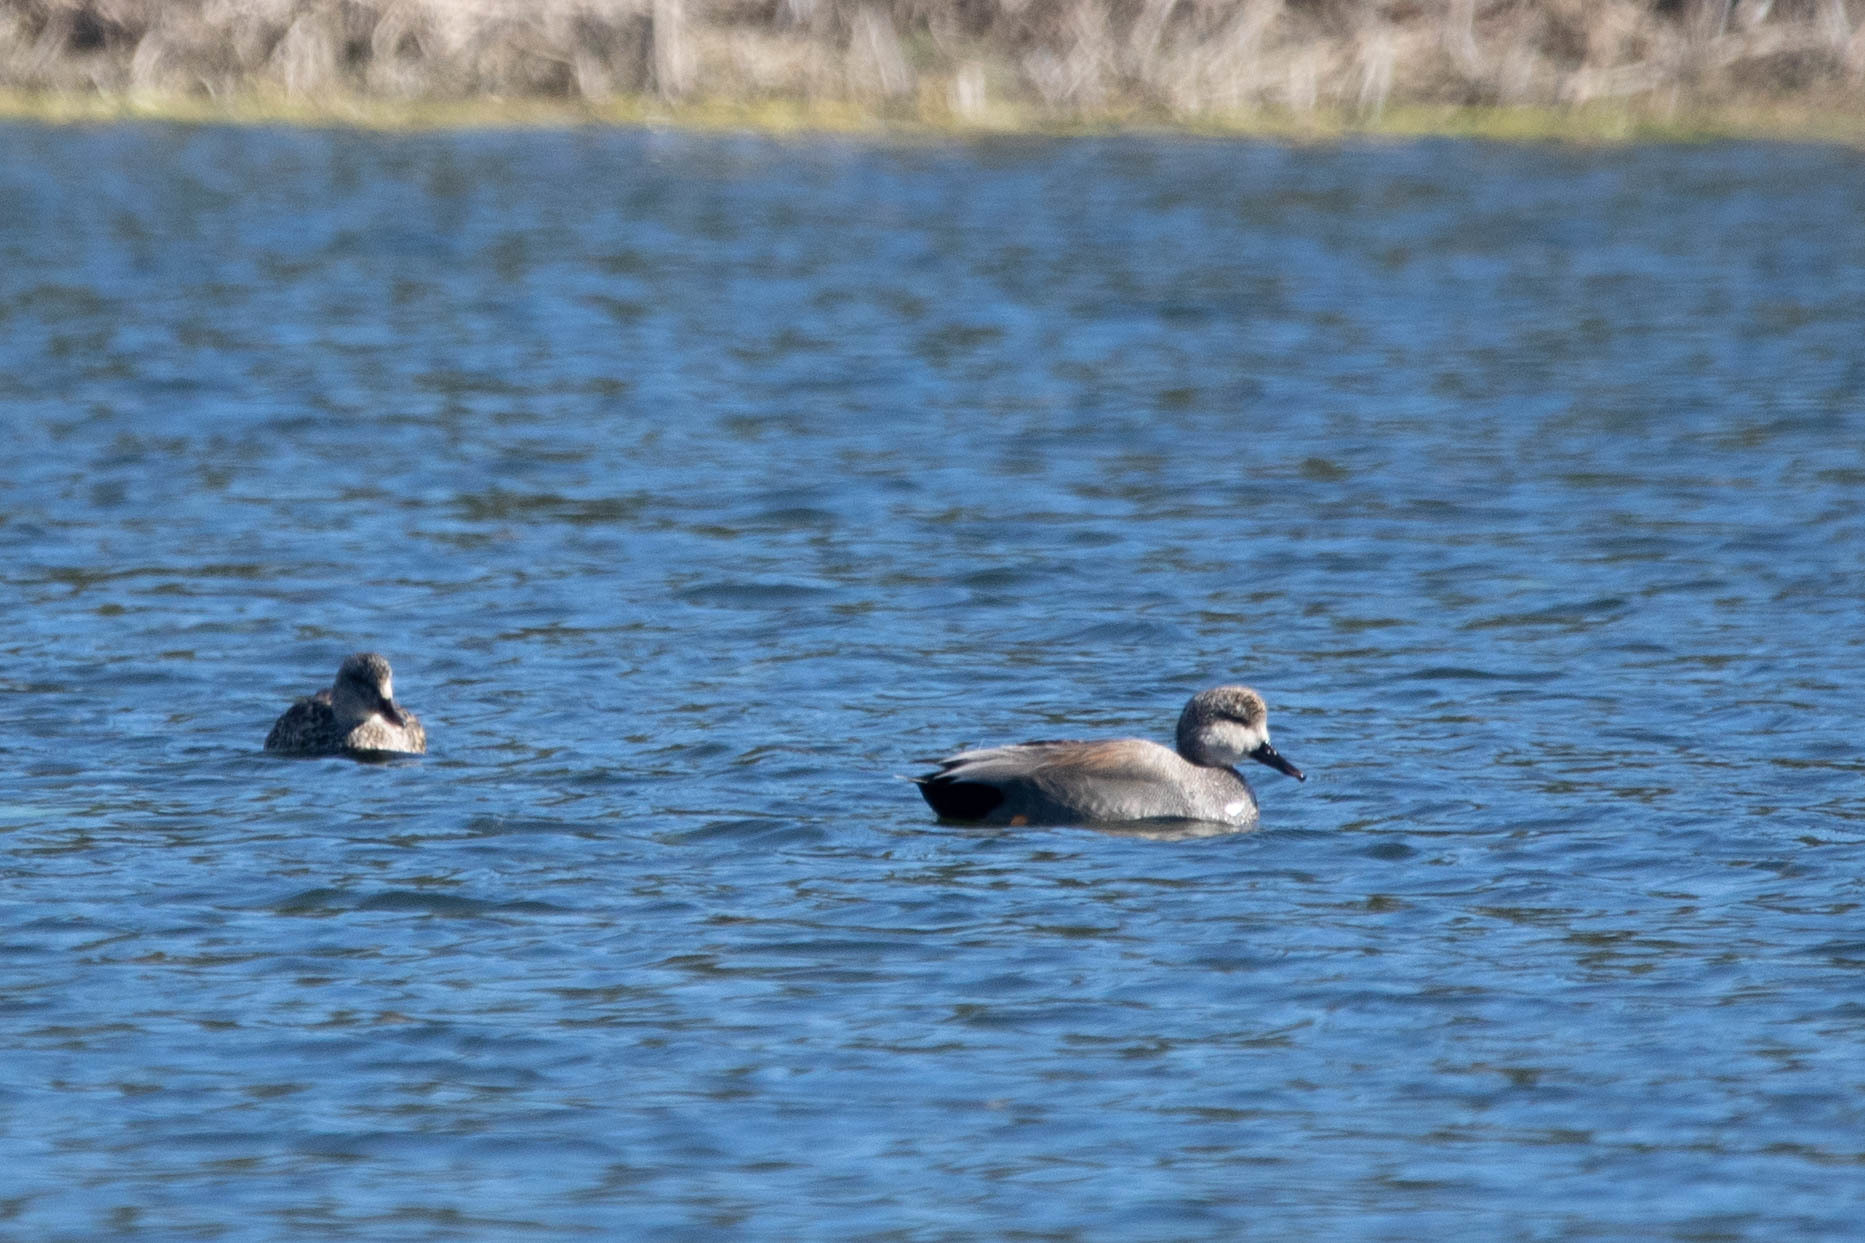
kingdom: Animalia
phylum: Chordata
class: Aves
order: Anseriformes
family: Anatidae
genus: Mareca
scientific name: Mareca strepera
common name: Gadwall
